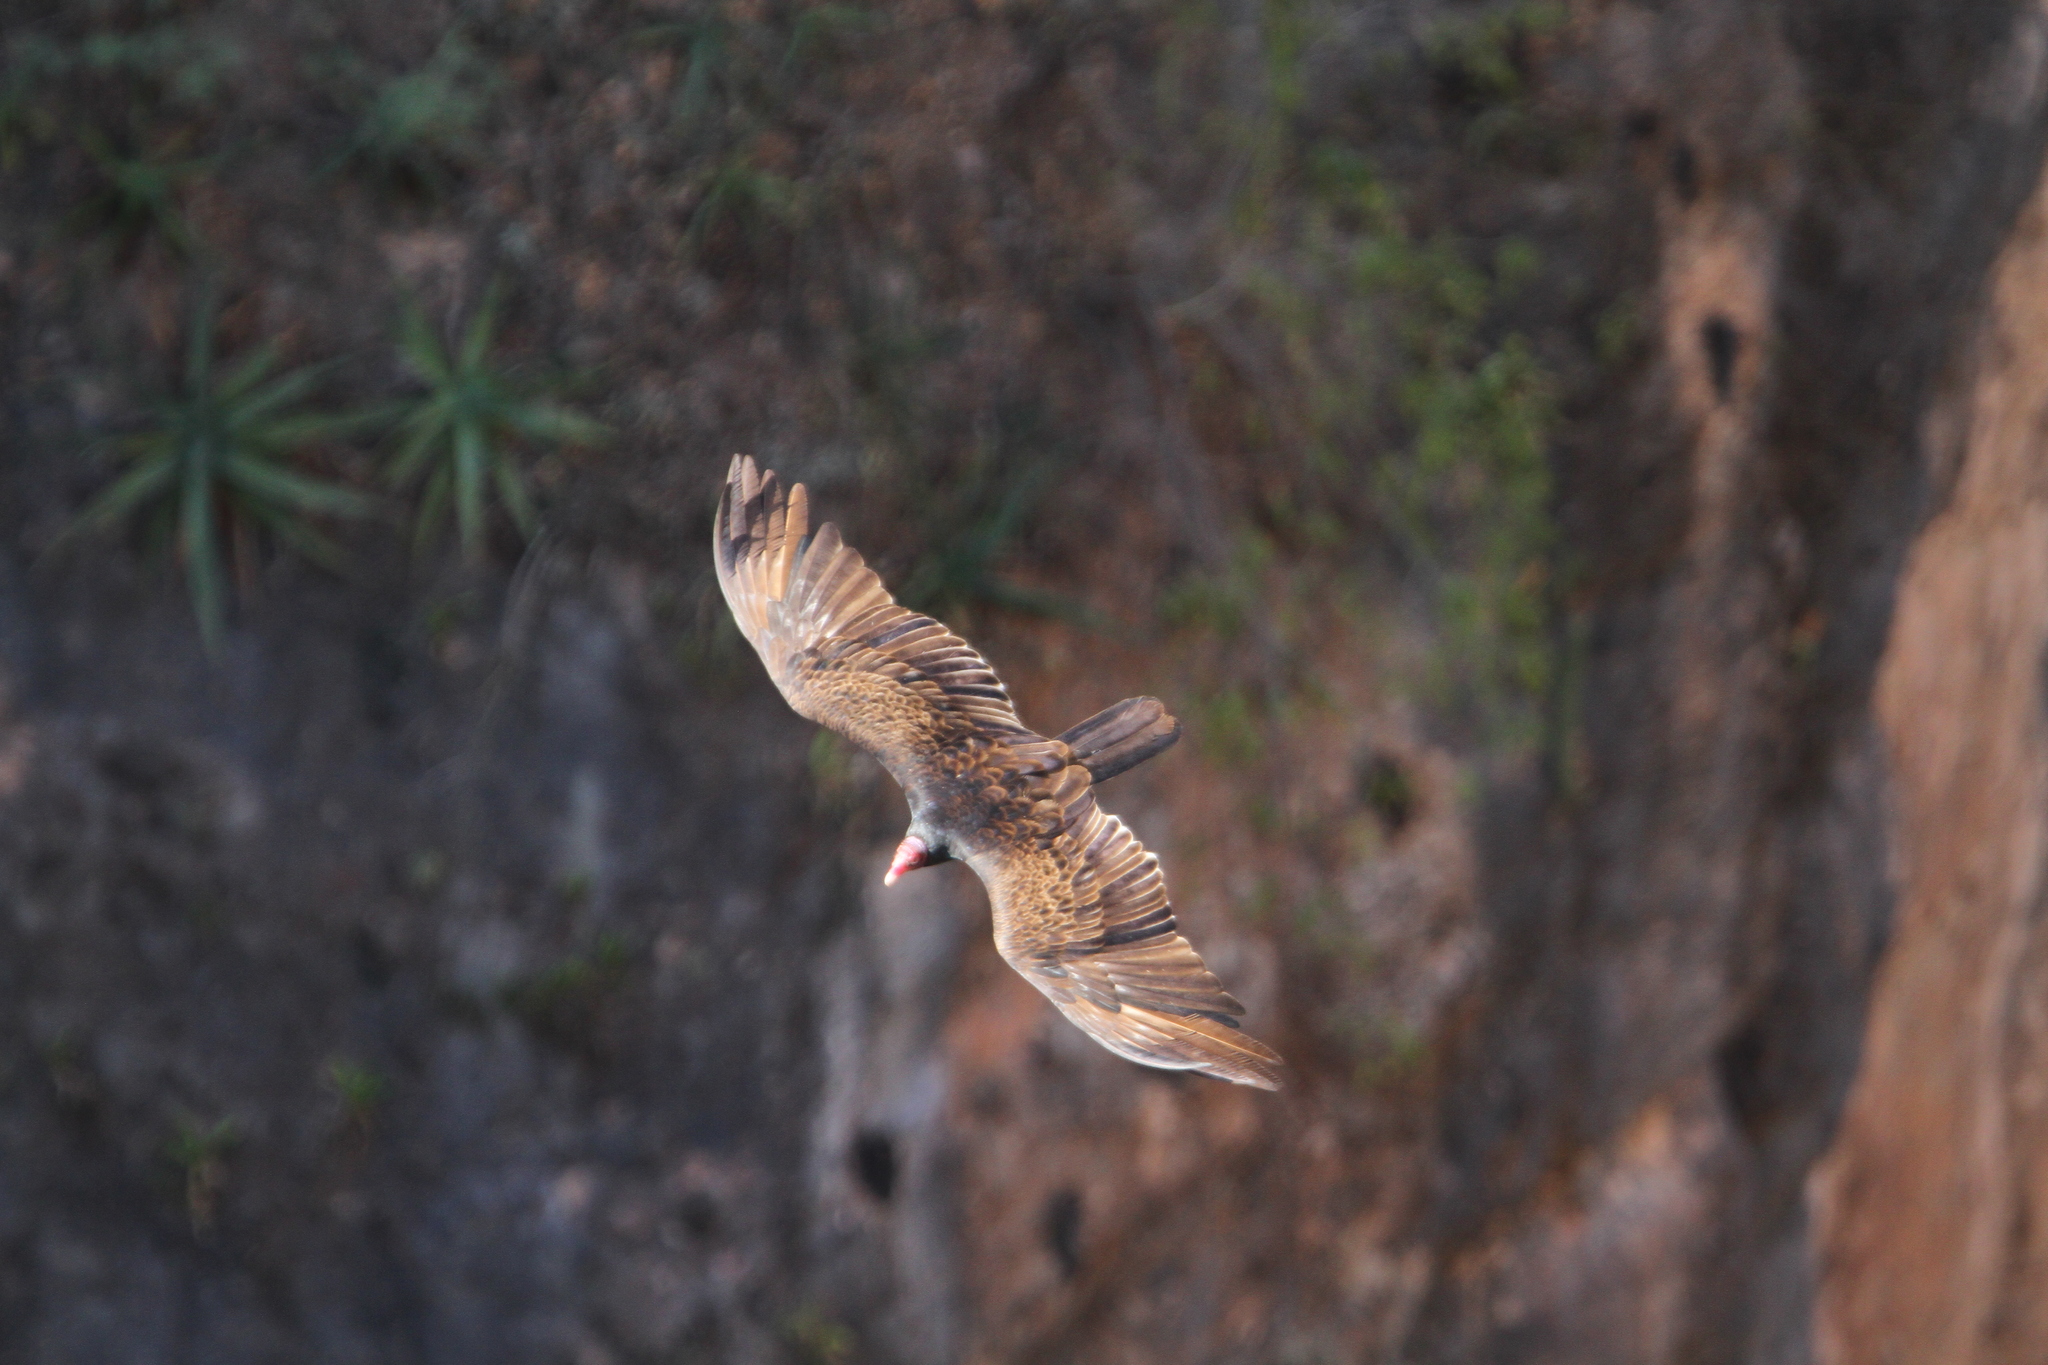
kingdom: Animalia
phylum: Chordata
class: Aves
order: Accipitriformes
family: Cathartidae
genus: Cathartes
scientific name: Cathartes aura
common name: Turkey vulture
